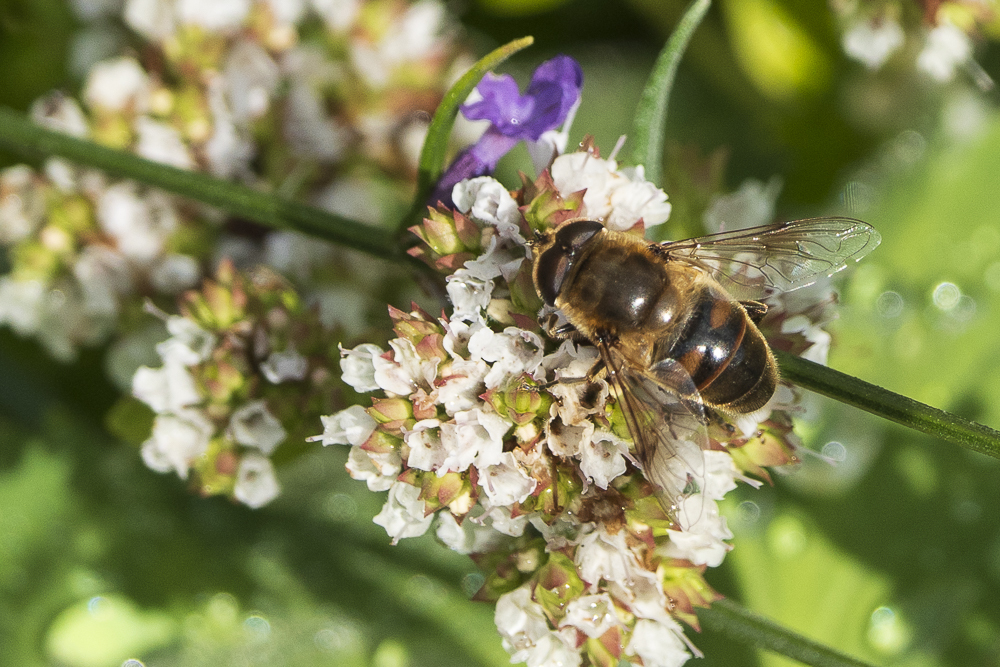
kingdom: Animalia
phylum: Arthropoda
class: Insecta
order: Diptera
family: Syrphidae
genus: Eristalis
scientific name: Eristalis tenax
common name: Drone fly
